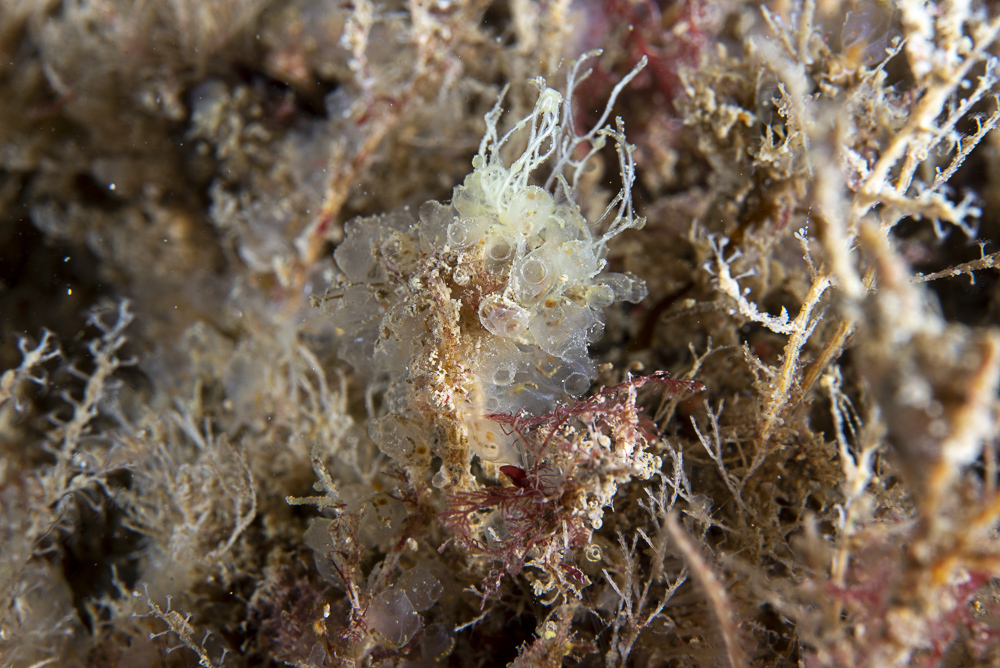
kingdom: Animalia
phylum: Chordata
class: Ascidiacea
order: Phlebobranchia
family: Perophoridae
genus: Perophora
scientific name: Perophora listeri
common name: Dwarf ascidian
